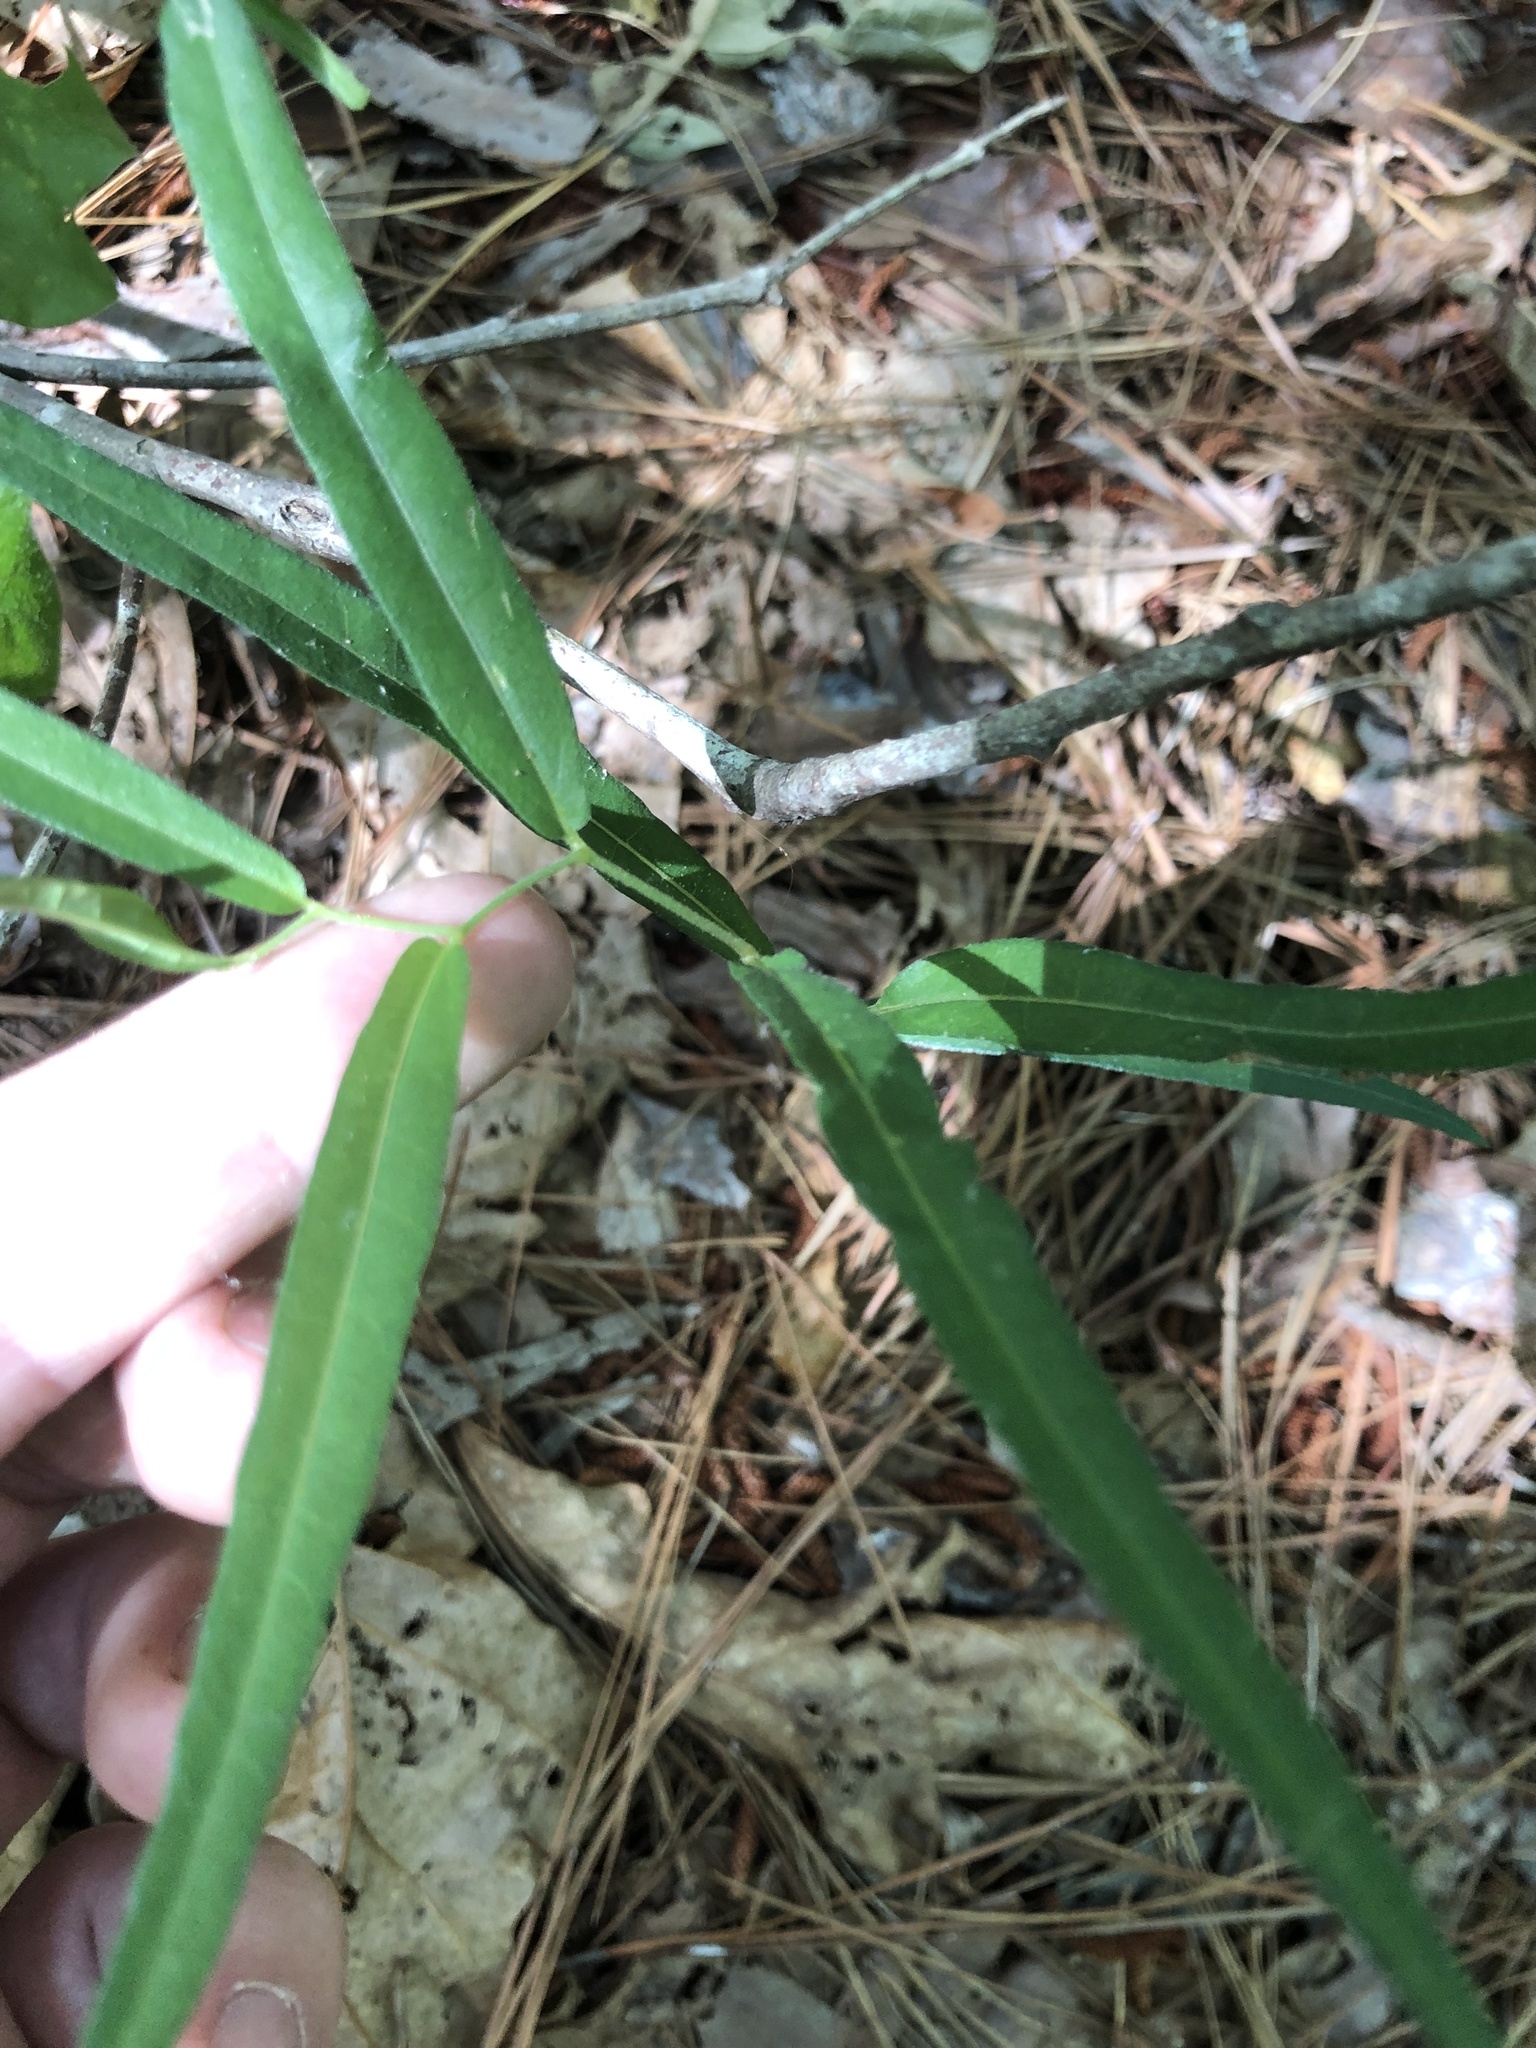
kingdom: Plantae
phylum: Tracheophyta
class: Magnoliopsida
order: Piperales
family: Aristolochiaceae
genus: Endodeca
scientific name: Endodeca serpentaria
